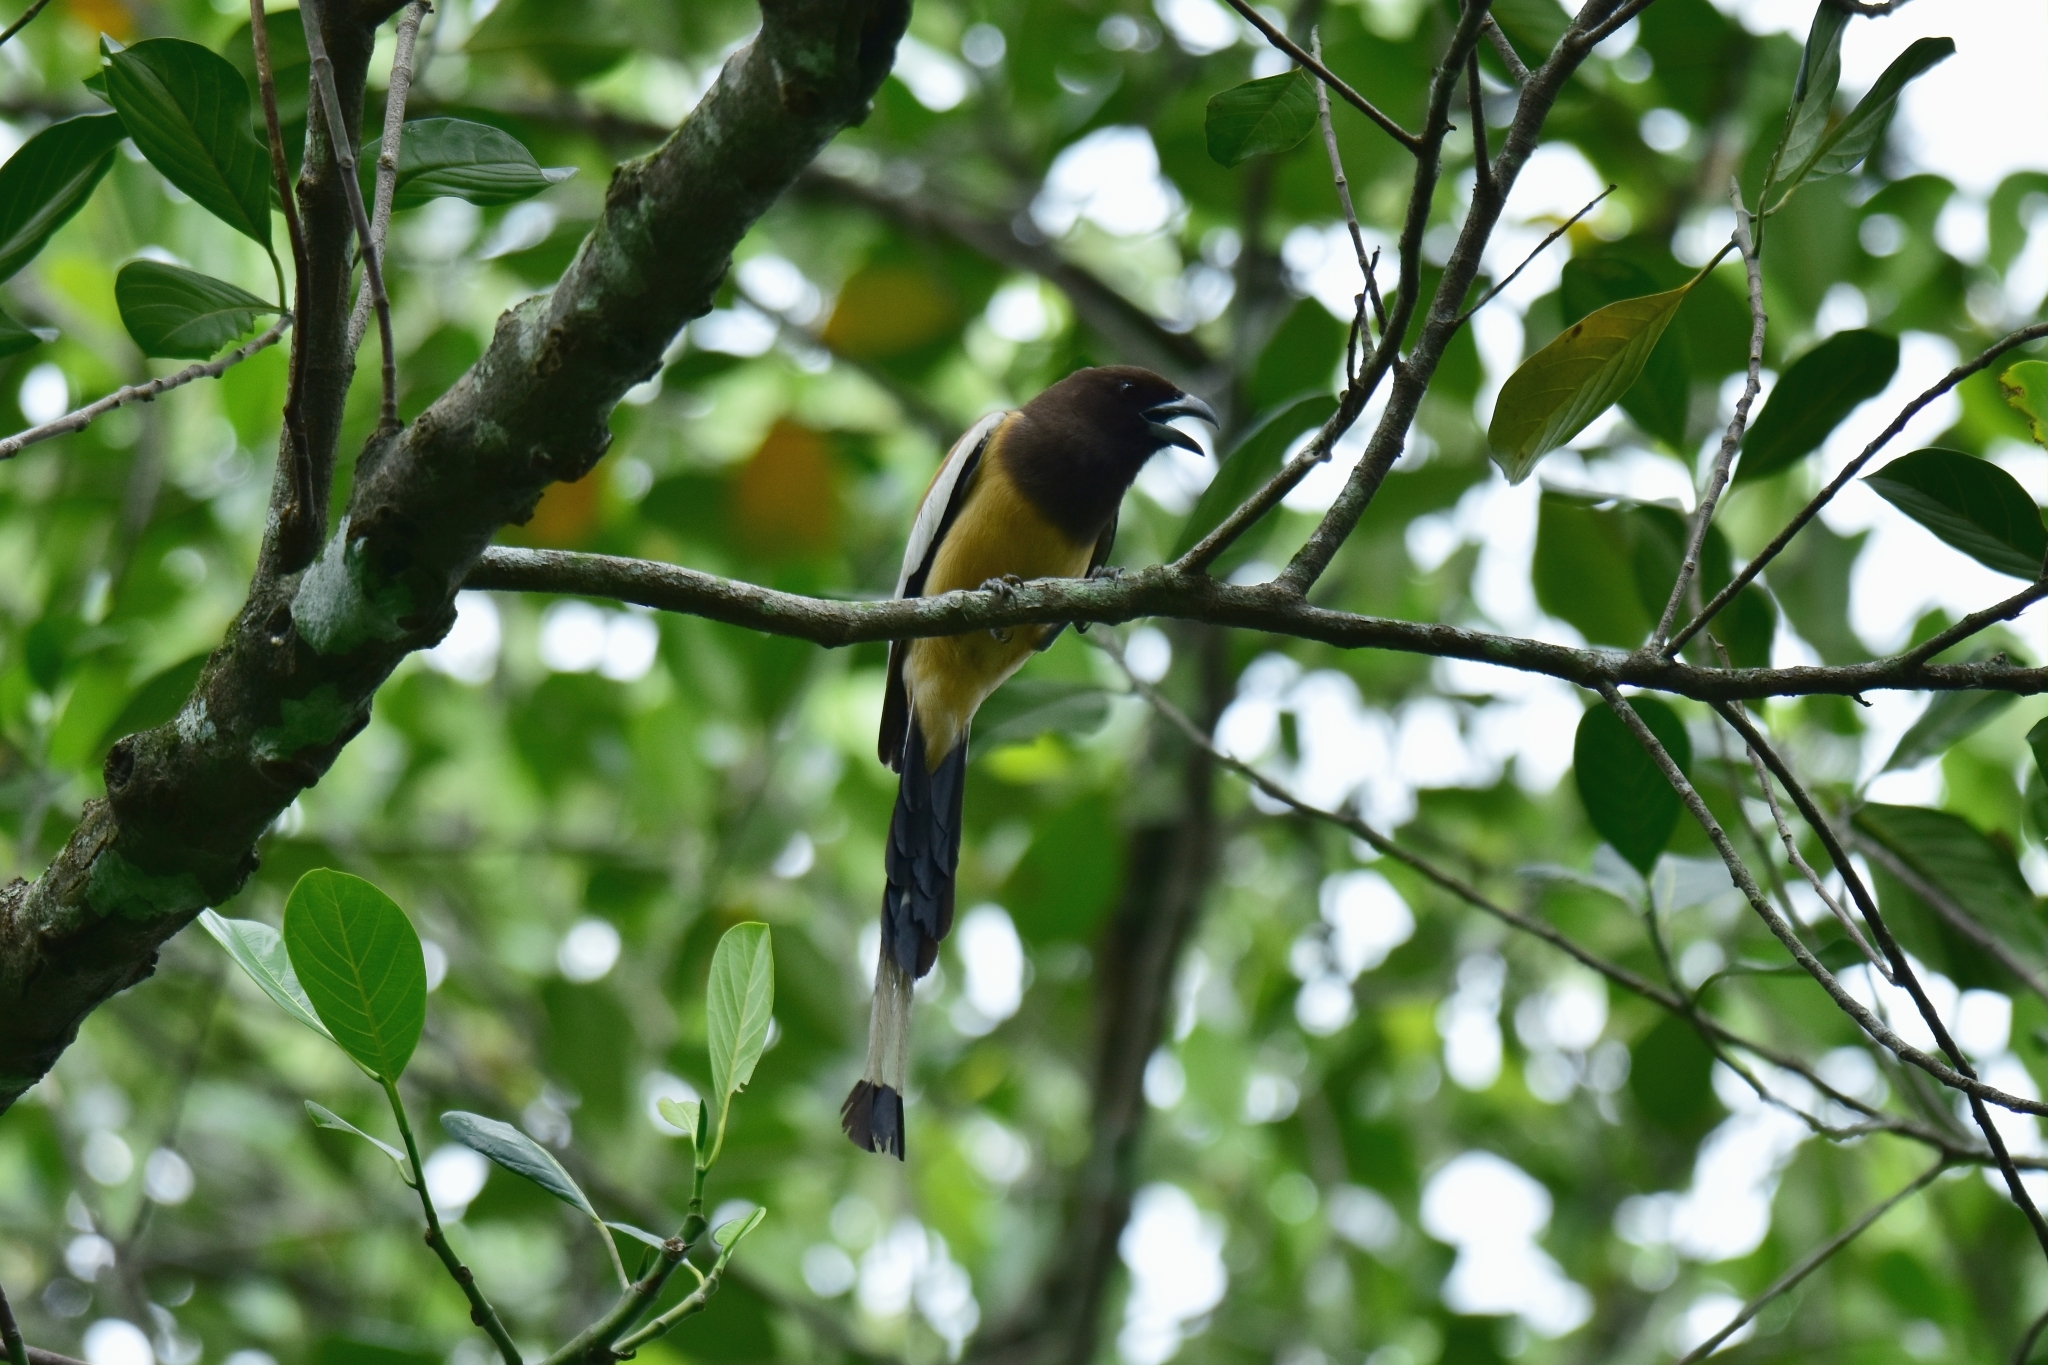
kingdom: Animalia
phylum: Chordata
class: Aves
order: Passeriformes
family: Corvidae
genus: Dendrocitta
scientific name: Dendrocitta vagabunda
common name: Rufous treepie
